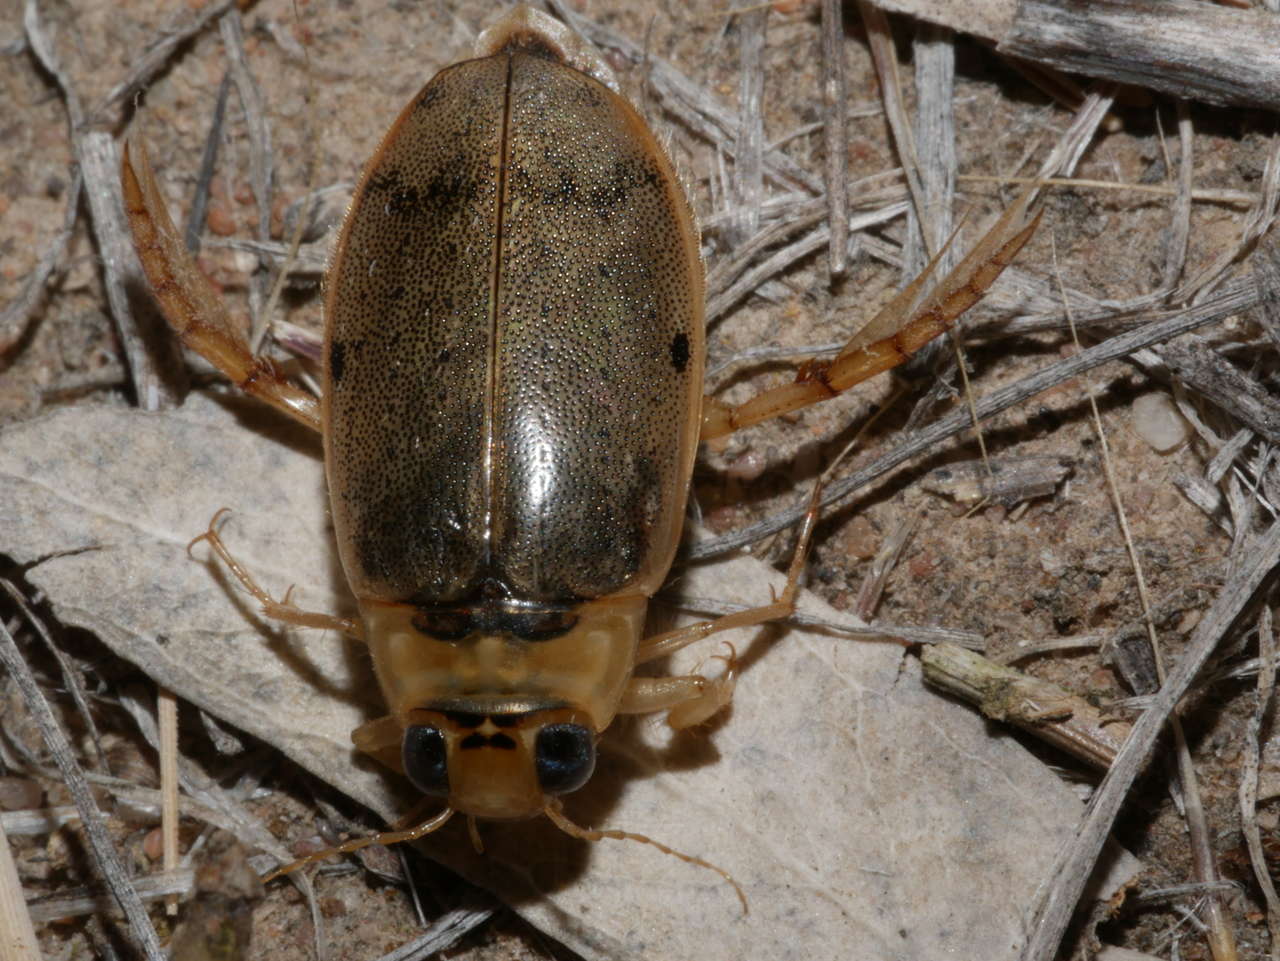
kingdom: Animalia
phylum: Arthropoda
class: Insecta
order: Coleoptera
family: Dytiscidae
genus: Eretes
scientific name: Eretes australis
